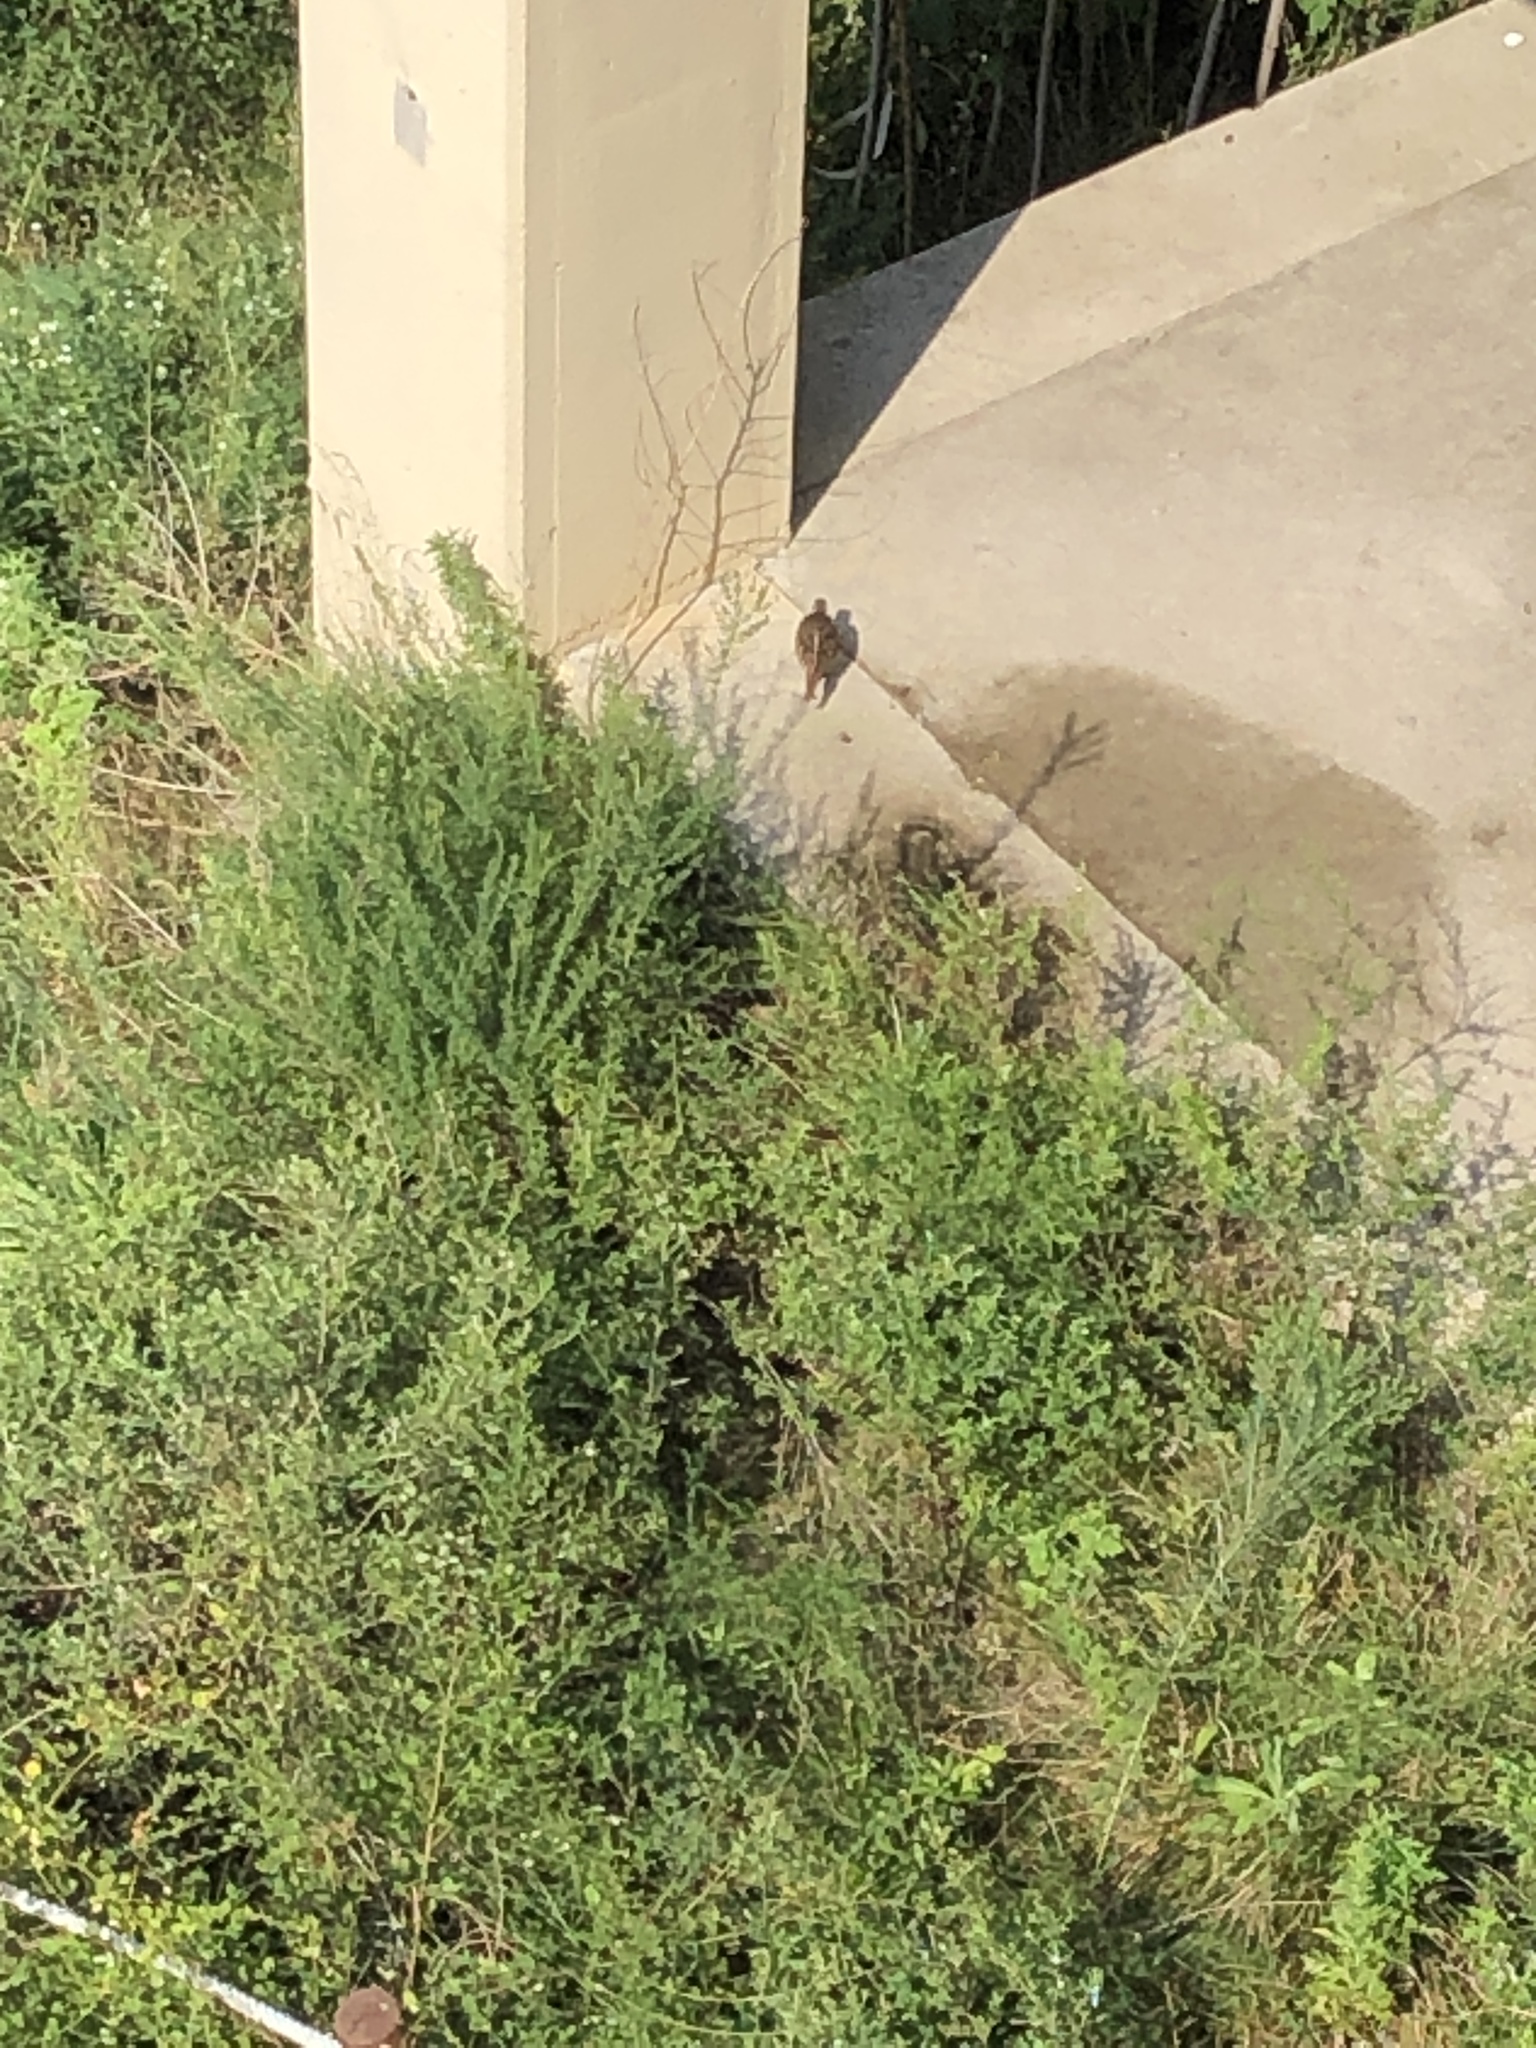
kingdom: Animalia
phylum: Chordata
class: Aves
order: Galliformes
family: Phasianidae
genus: Phasianus
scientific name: Phasianus colchicus
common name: Common pheasant
